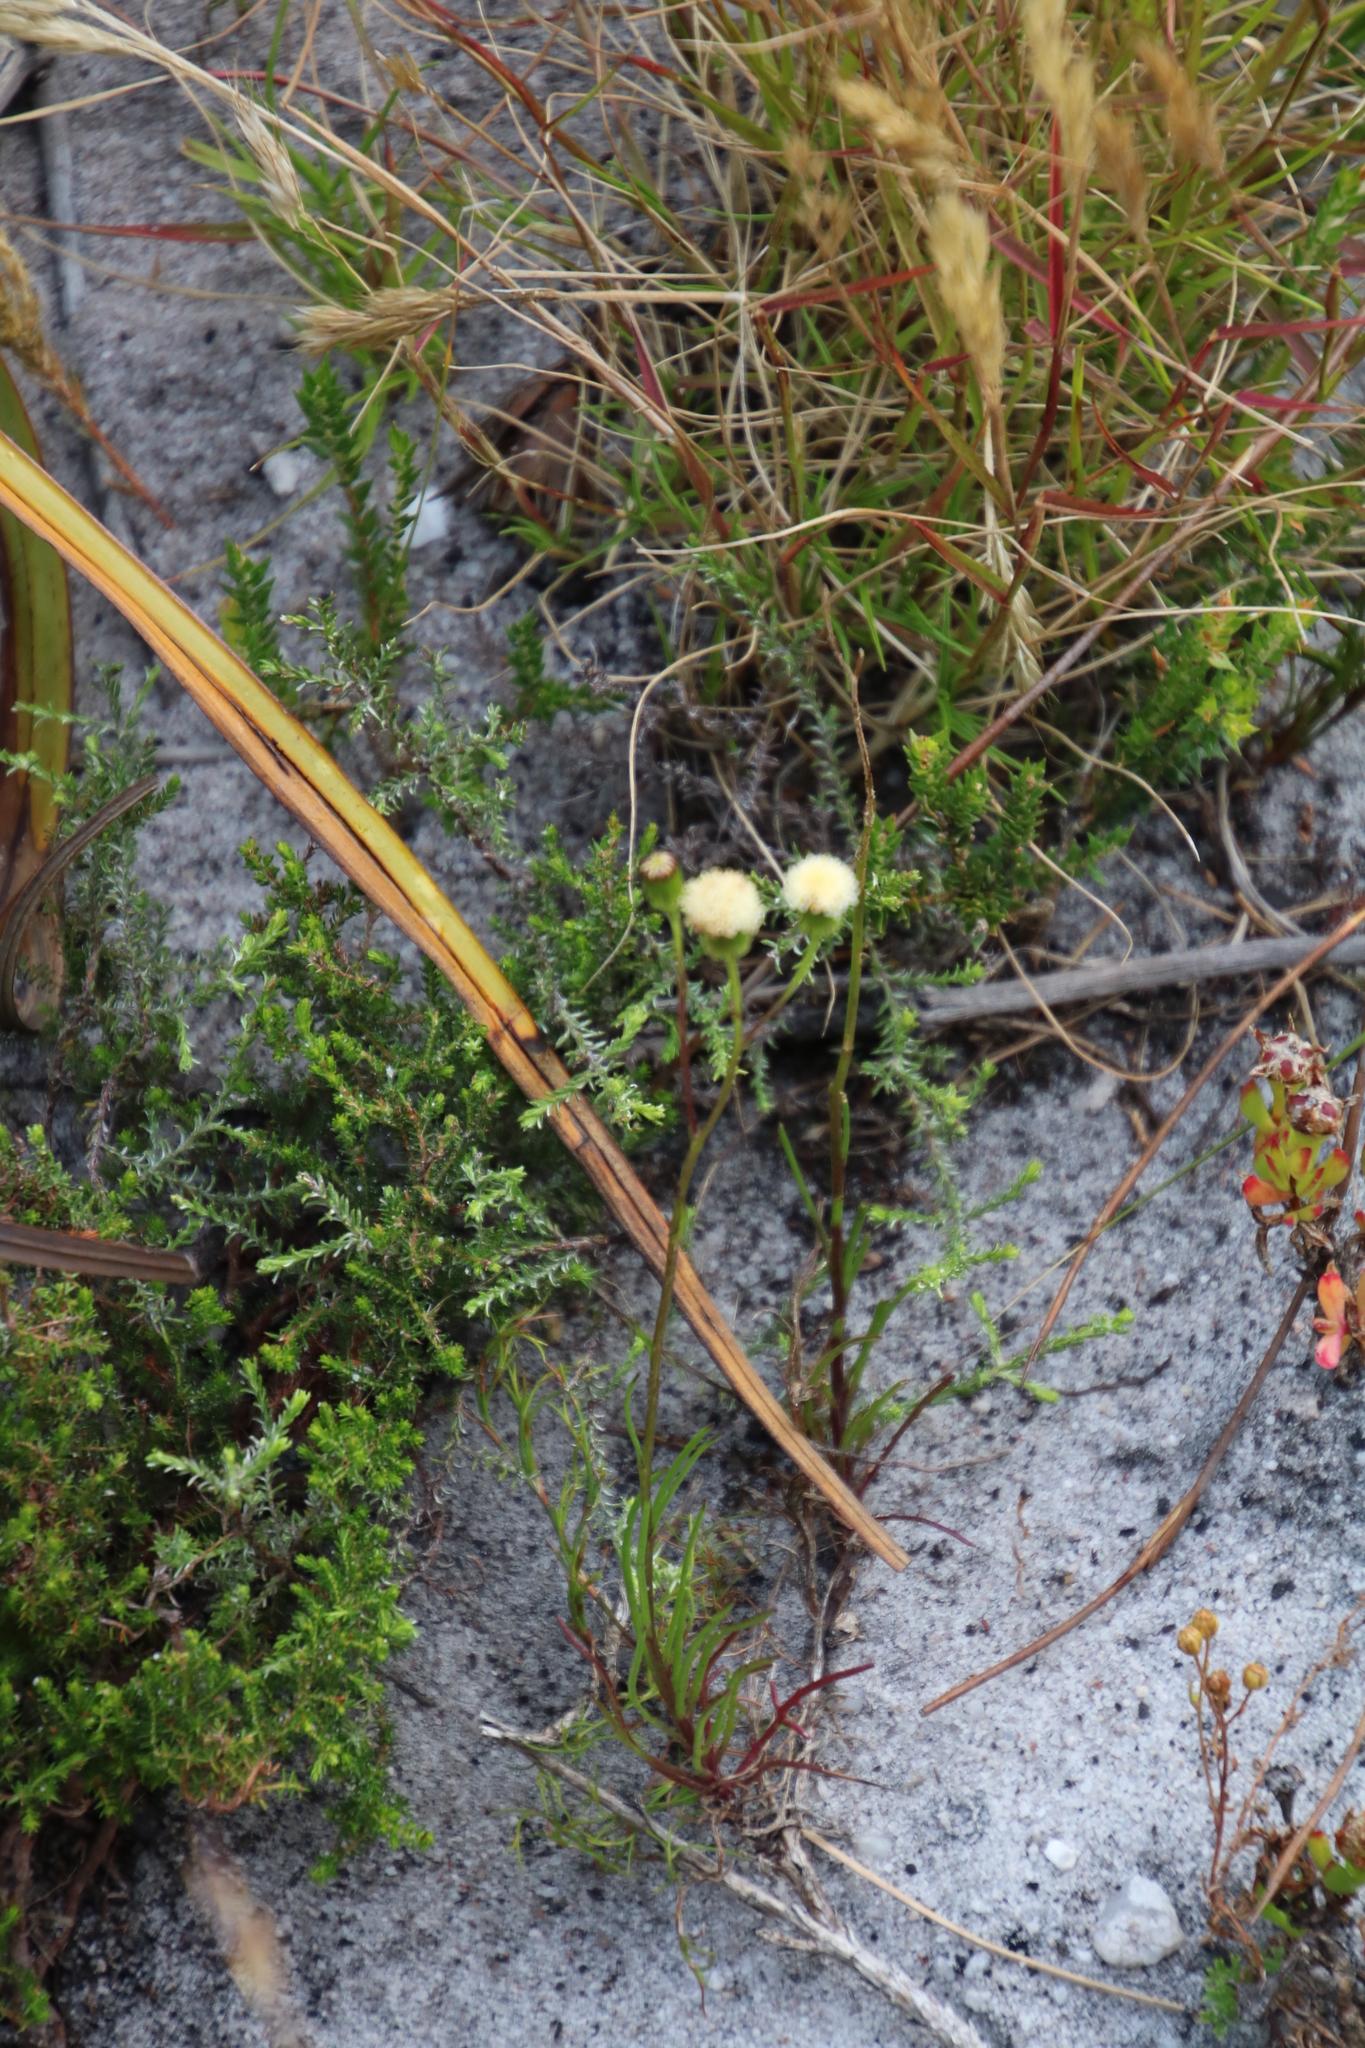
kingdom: Plantae
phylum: Tracheophyta
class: Magnoliopsida
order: Asterales
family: Asteraceae
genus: Senecio
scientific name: Senecio paniculatus
